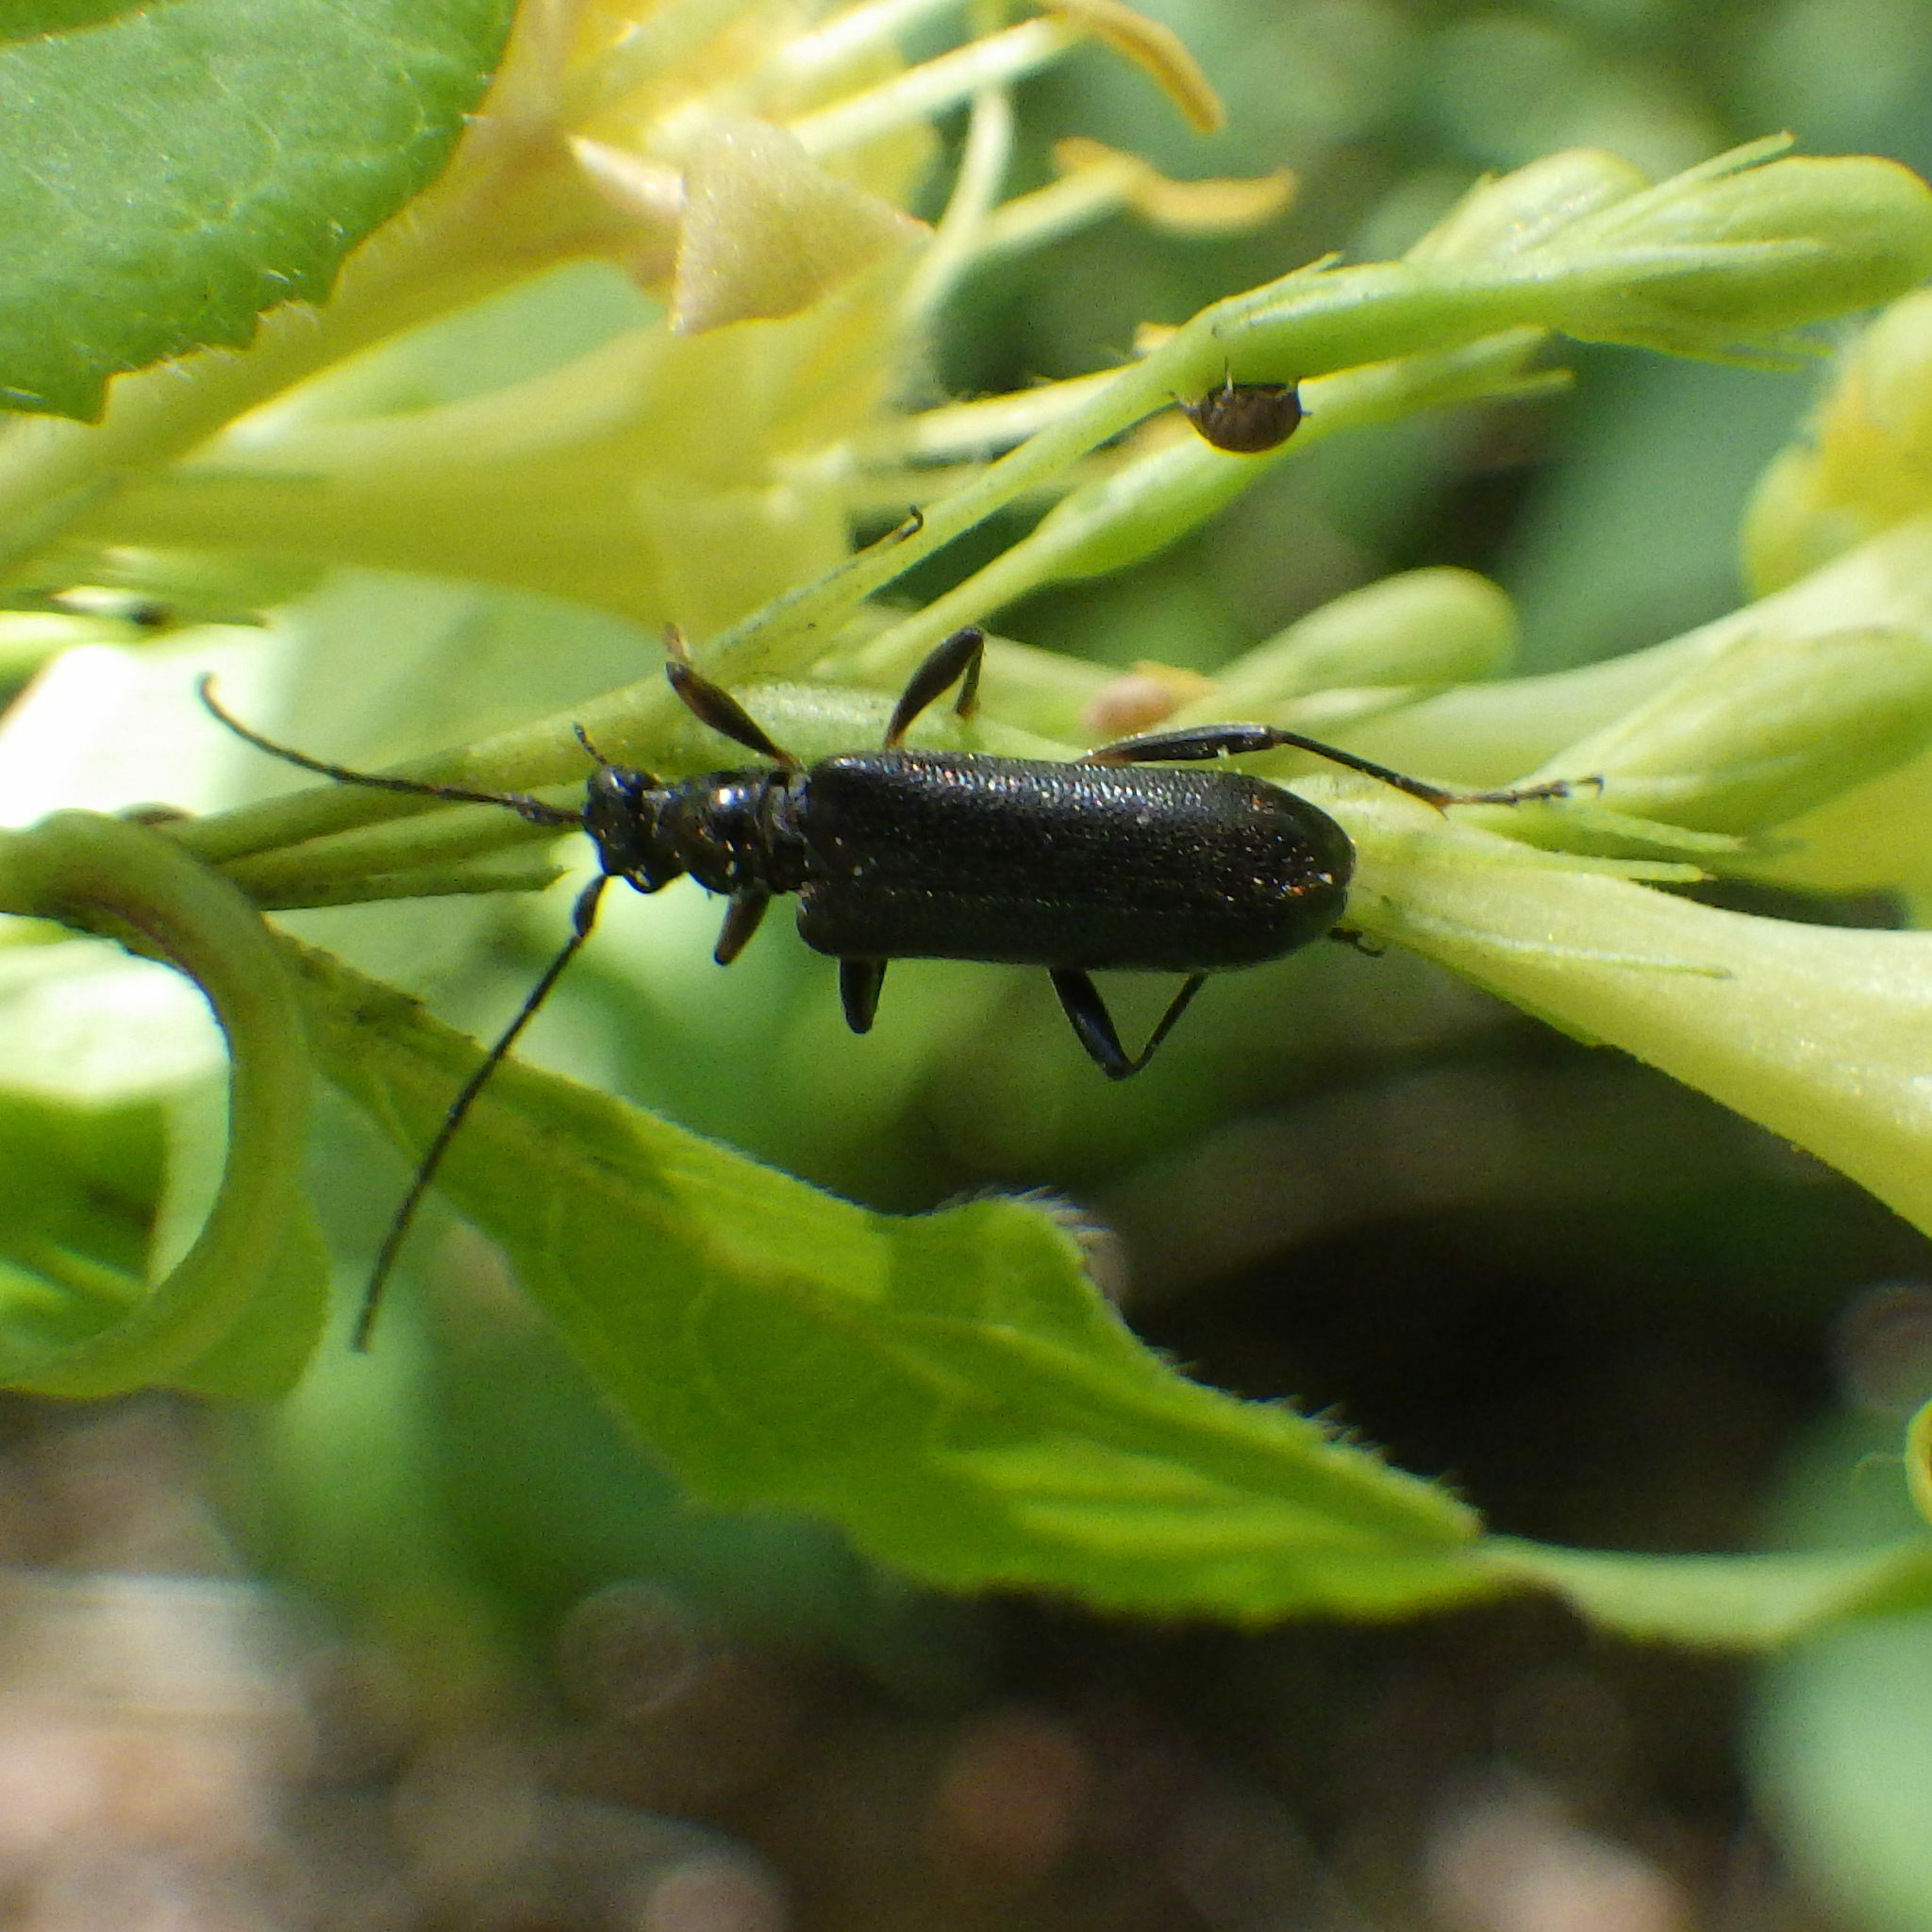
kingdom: Animalia
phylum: Arthropoda
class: Insecta
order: Coleoptera
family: Cerambycidae
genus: Pidonia
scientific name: Pidonia ruficollis
